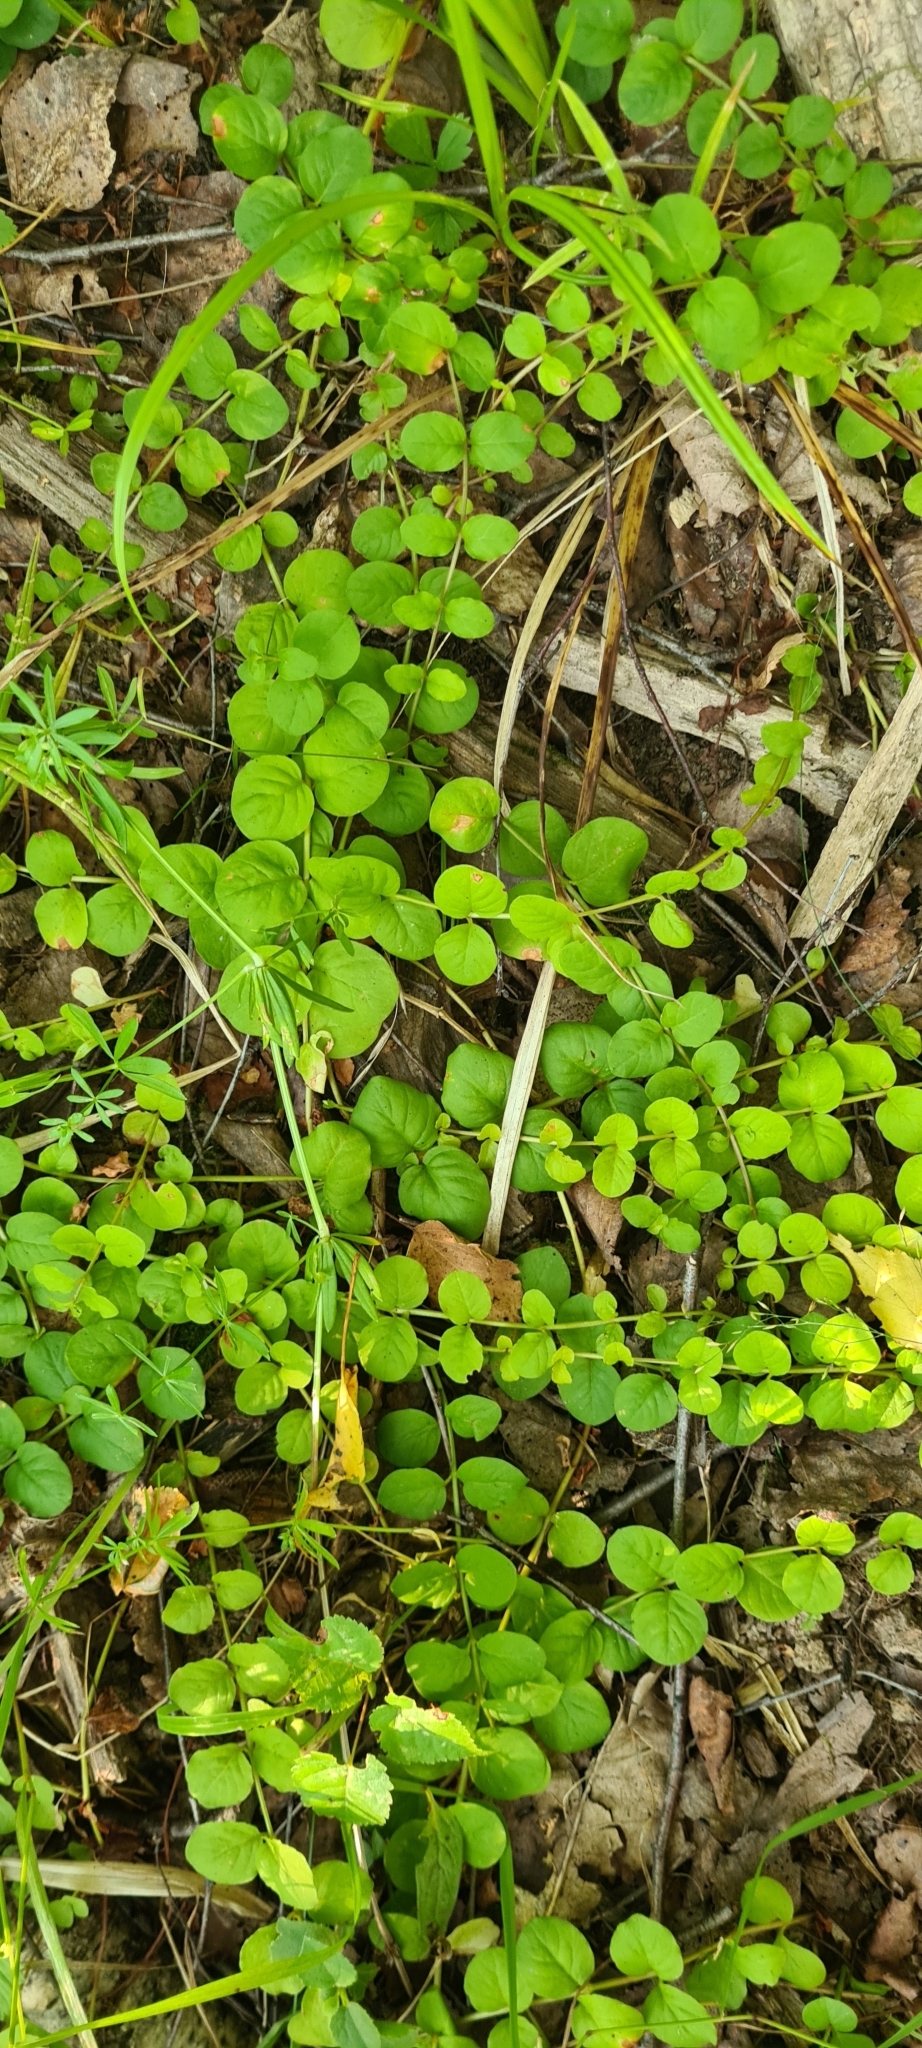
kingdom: Plantae
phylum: Tracheophyta
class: Magnoliopsida
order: Ericales
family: Primulaceae
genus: Lysimachia
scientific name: Lysimachia nummularia
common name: Moneywort
